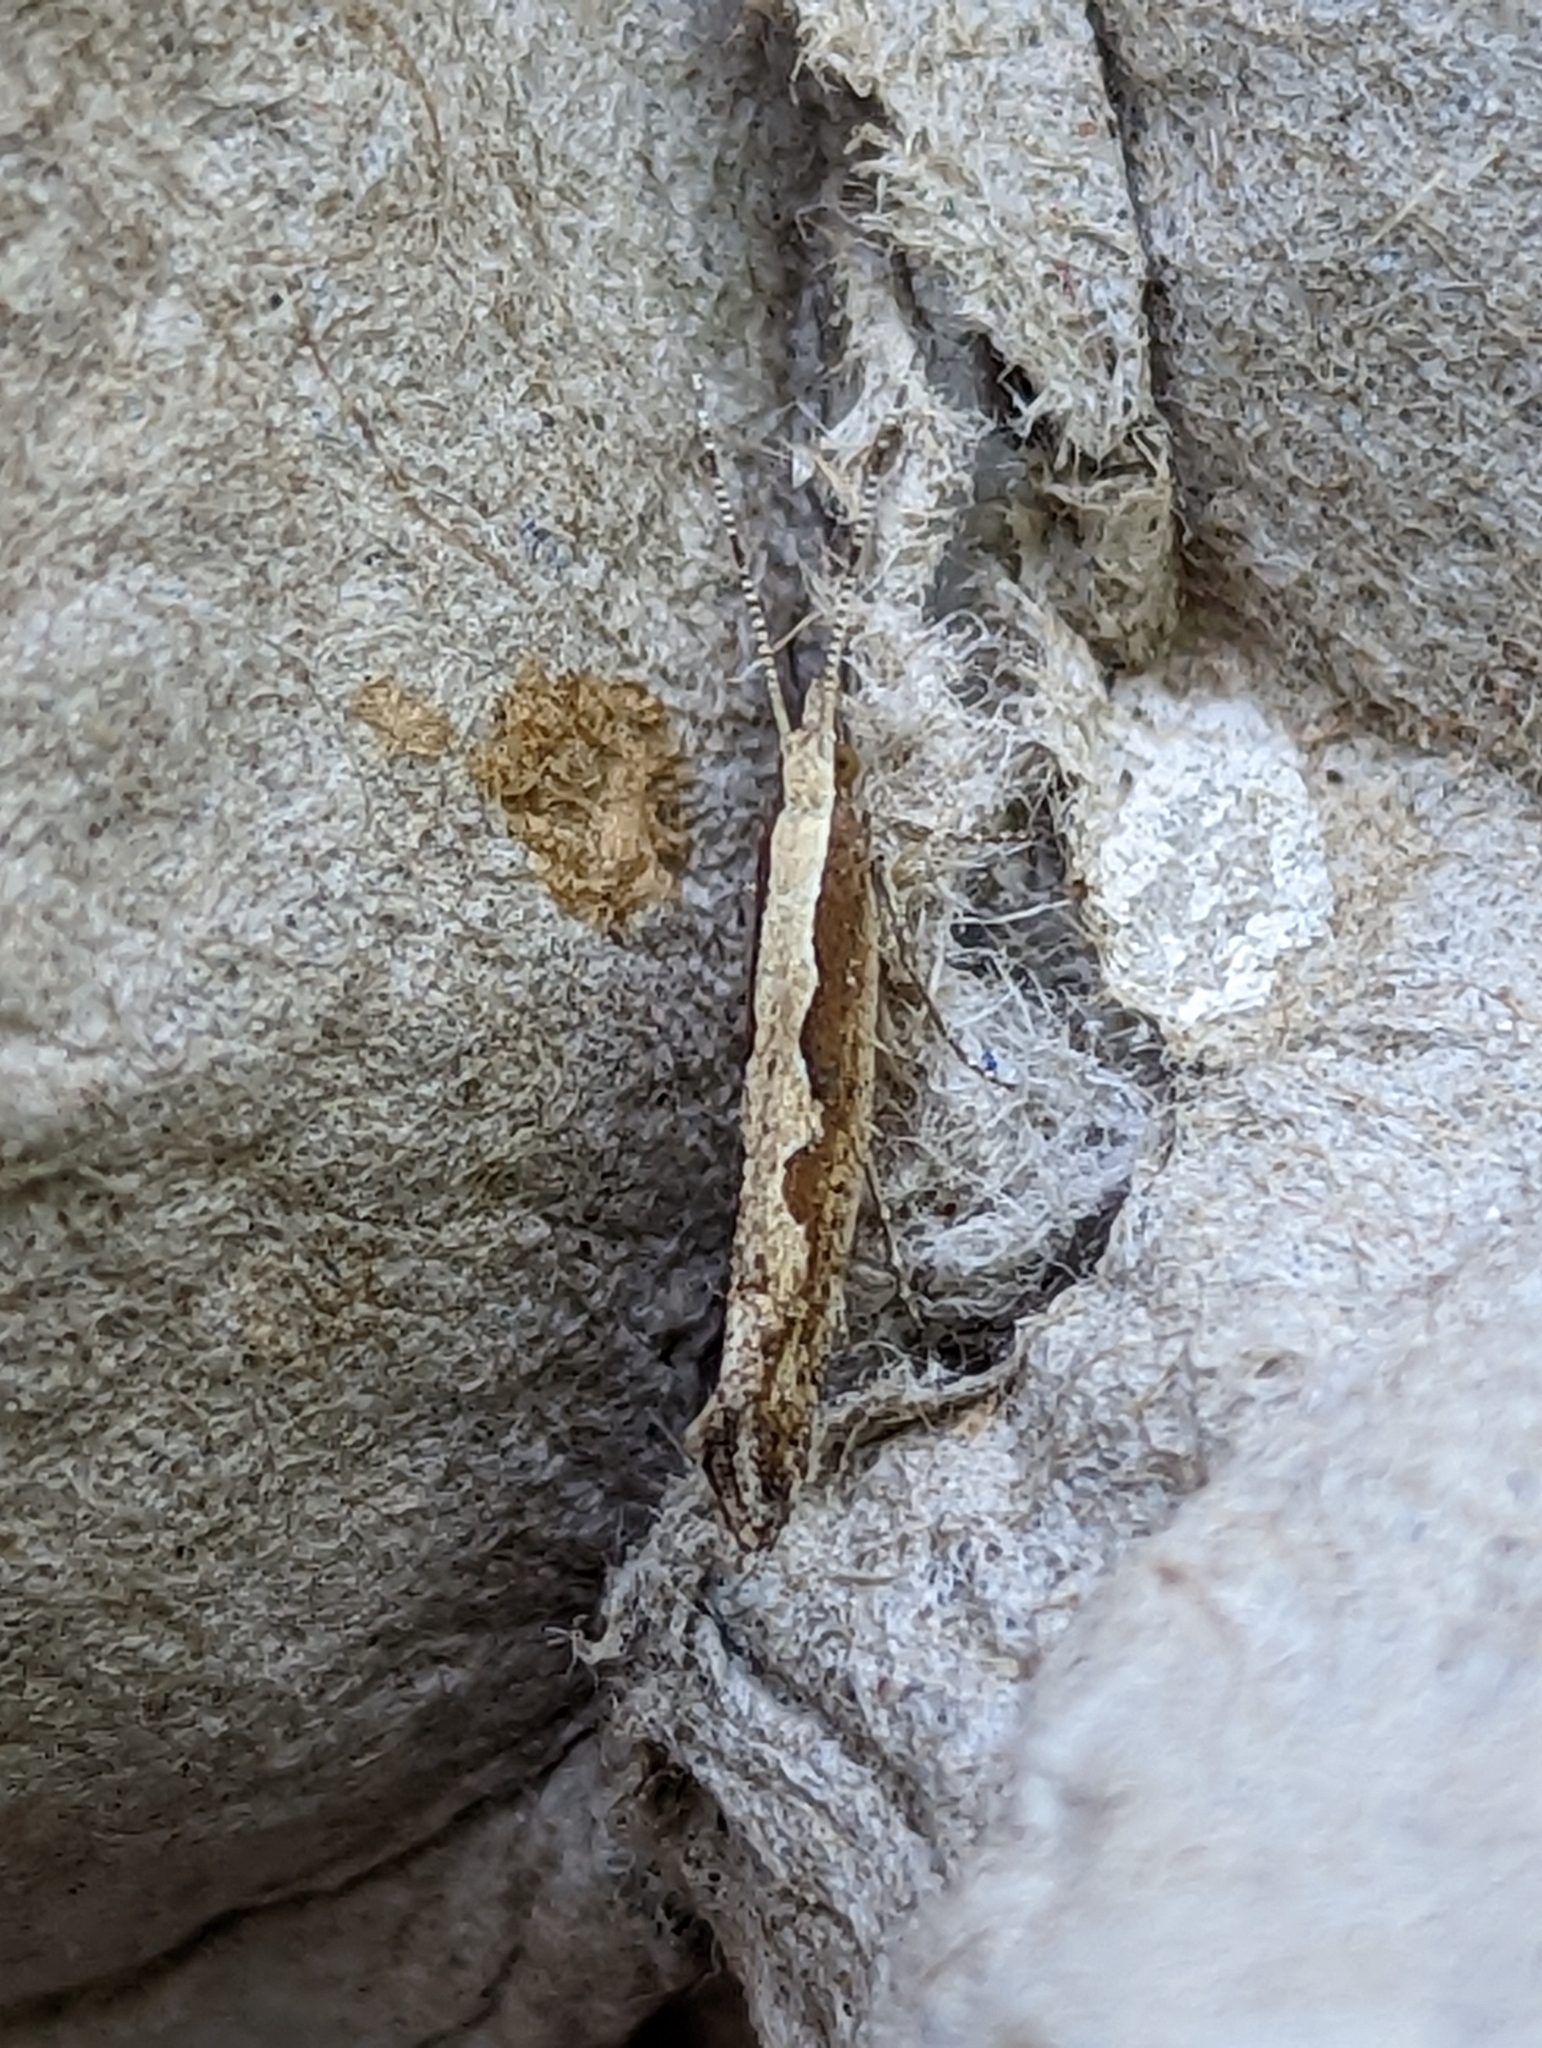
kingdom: Animalia
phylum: Arthropoda
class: Insecta
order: Lepidoptera
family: Plutellidae
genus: Plutella
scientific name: Plutella xylostella
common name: Diamond-back moth
